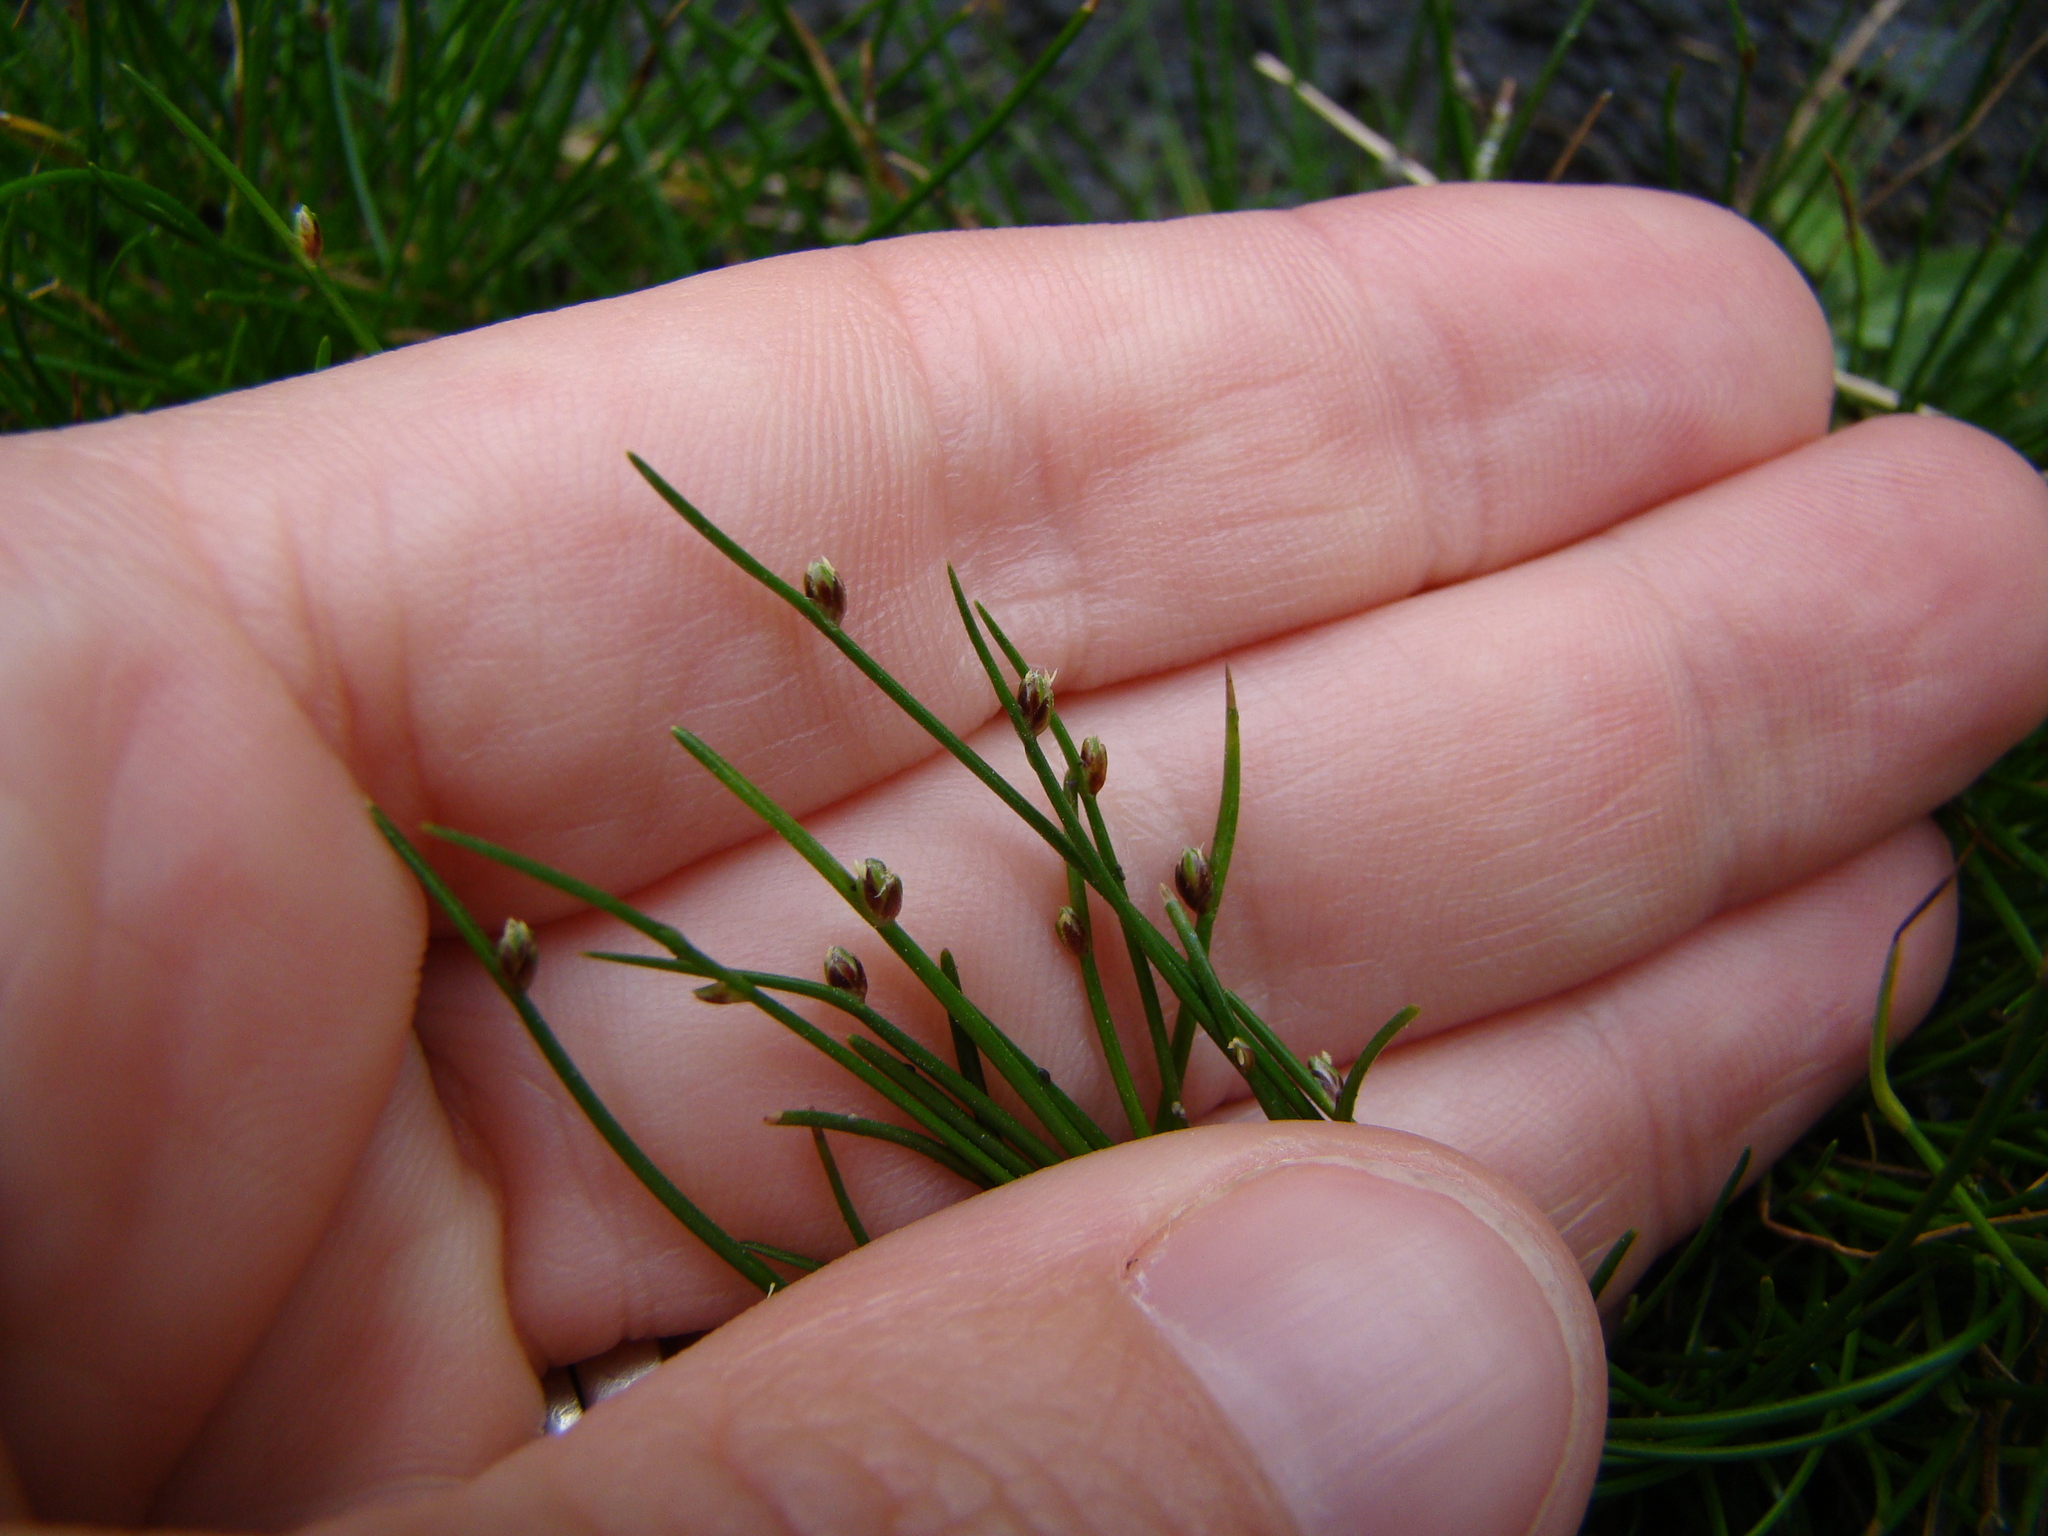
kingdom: Plantae
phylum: Tracheophyta
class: Liliopsida
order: Poales
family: Cyperaceae
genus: Isolepis
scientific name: Isolepis cernua
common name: Slender club-rush
